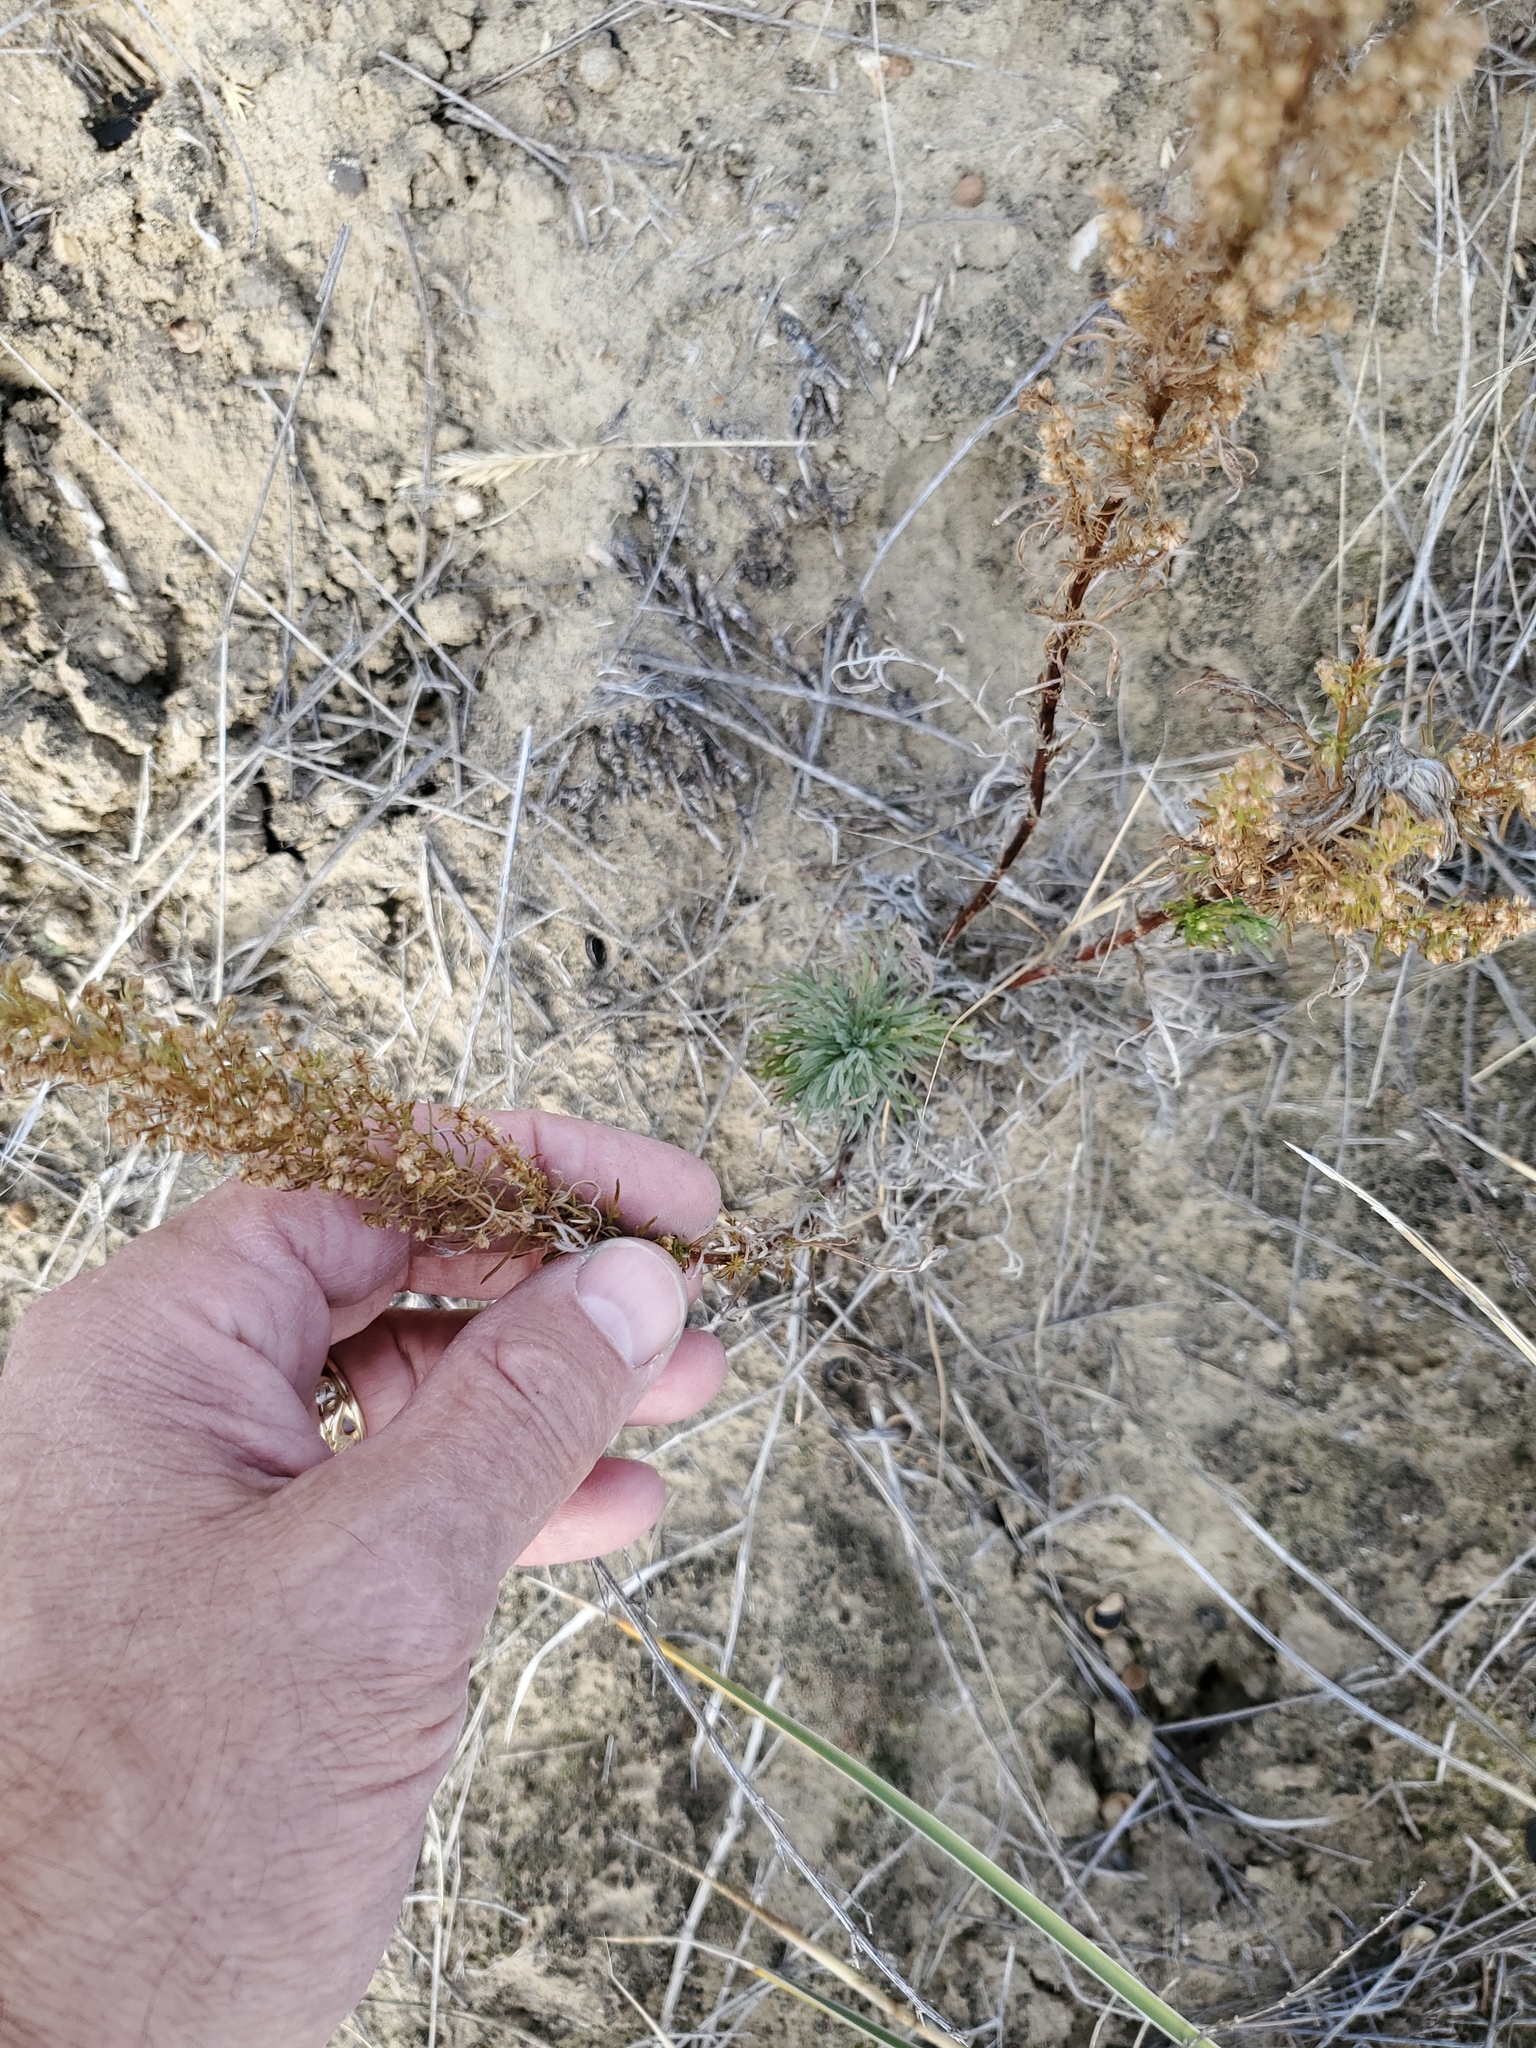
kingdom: Plantae
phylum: Tracheophyta
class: Magnoliopsida
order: Asterales
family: Asteraceae
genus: Artemisia
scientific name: Artemisia campestris
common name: Field wormwood
